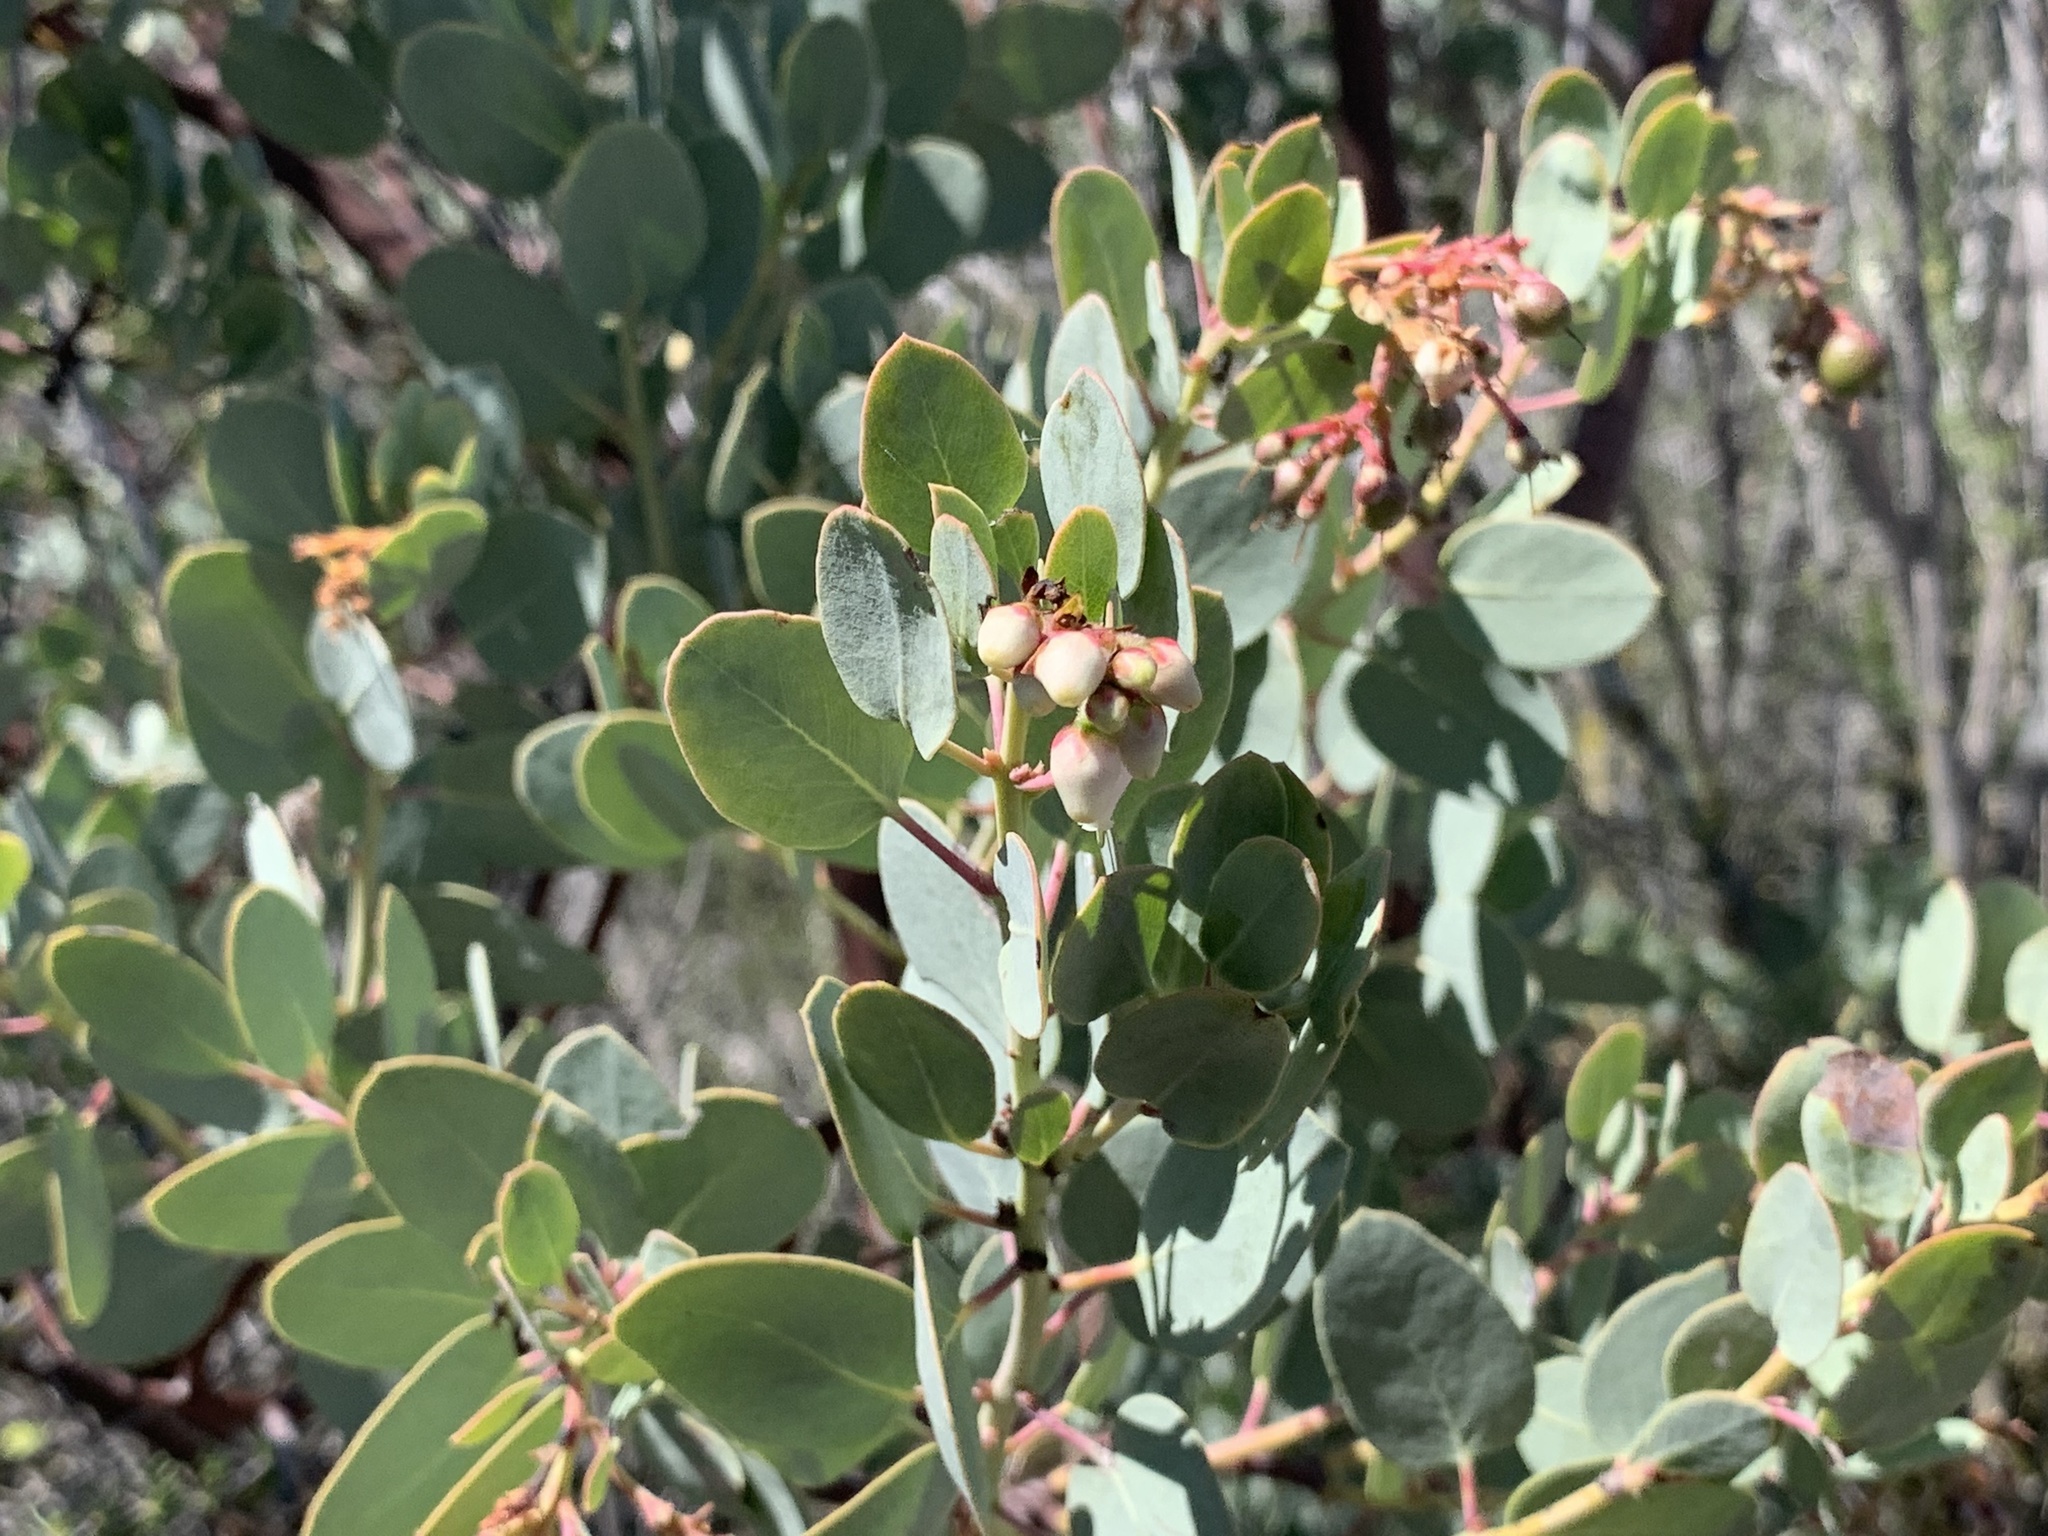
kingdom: Plantae
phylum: Tracheophyta
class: Magnoliopsida
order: Ericales
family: Ericaceae
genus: Arctostaphylos
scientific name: Arctostaphylos glauca
